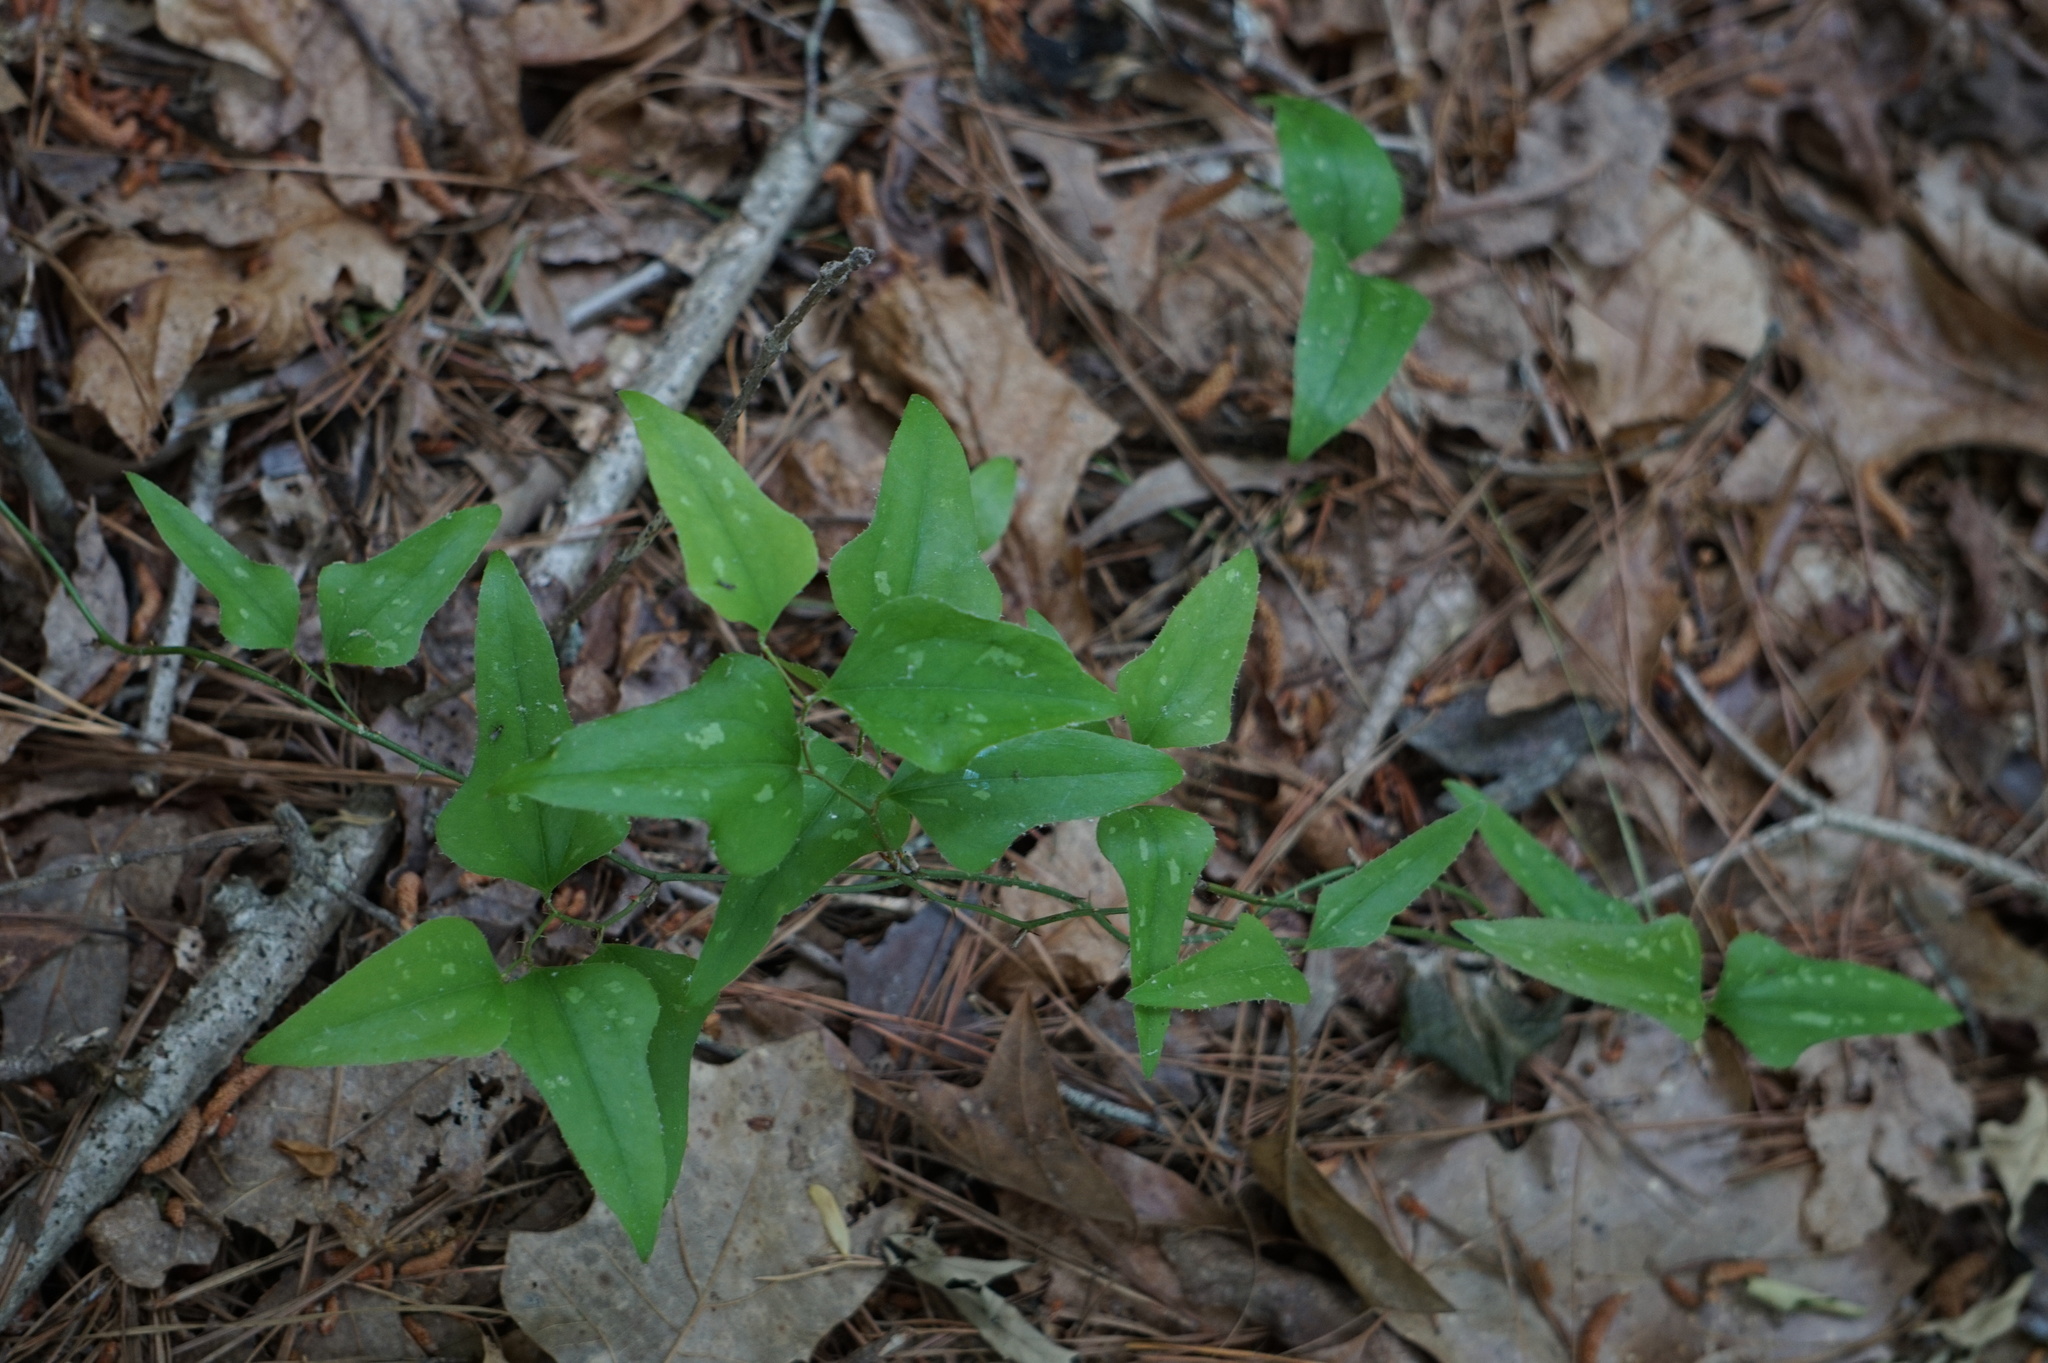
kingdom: Plantae
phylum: Tracheophyta
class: Liliopsida
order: Liliales
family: Smilacaceae
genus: Smilax
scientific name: Smilax bona-nox
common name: Catbrier
